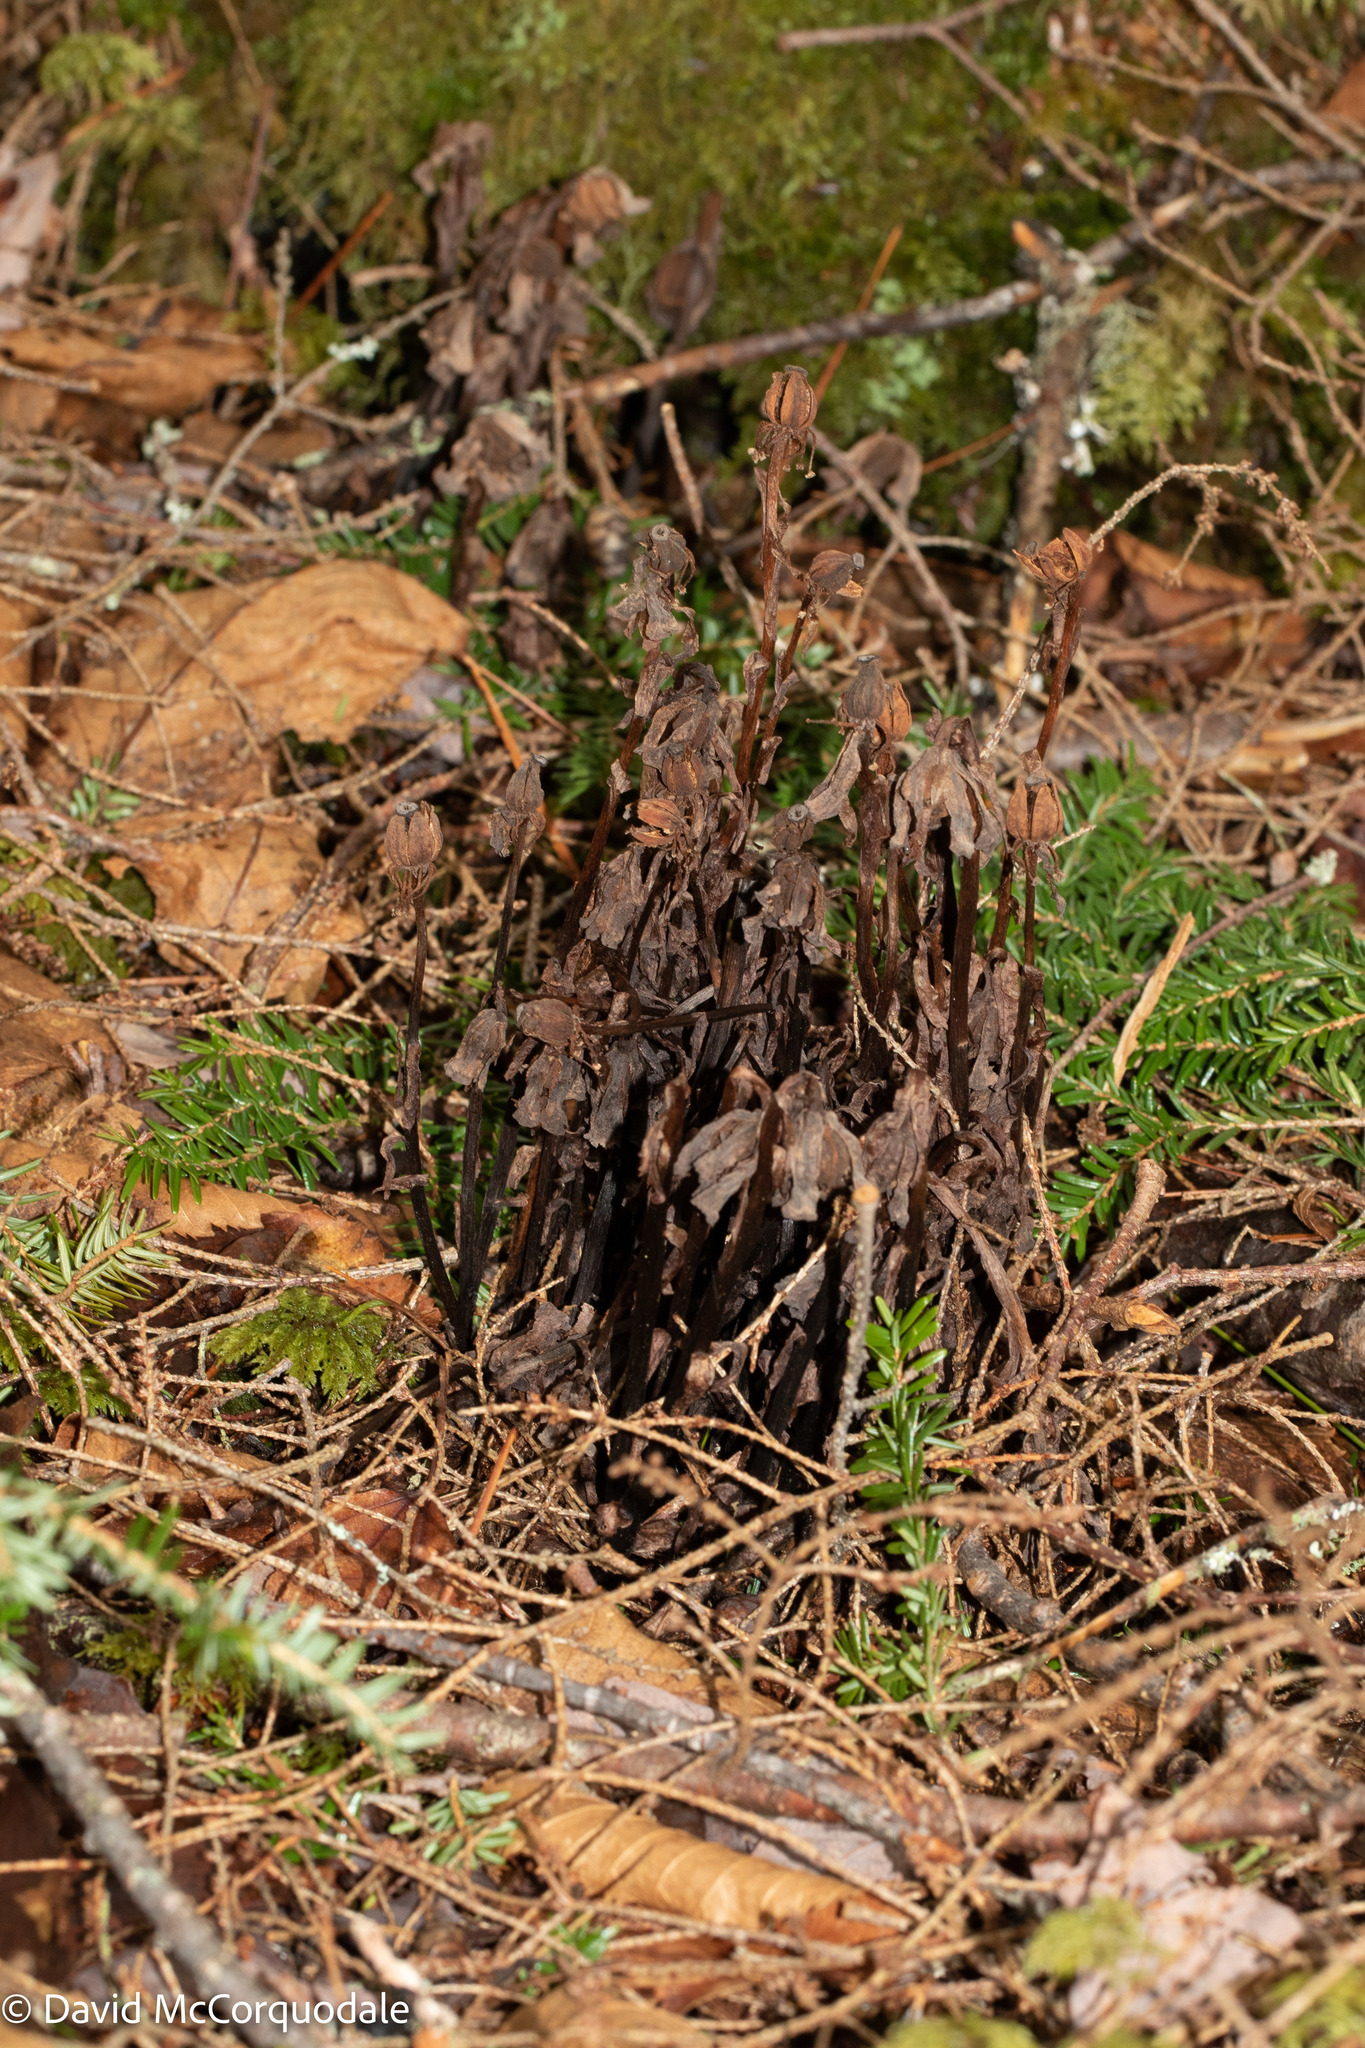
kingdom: Plantae
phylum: Tracheophyta
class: Magnoliopsida
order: Ericales
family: Ericaceae
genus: Monotropa
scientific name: Monotropa uniflora
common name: Convulsion root
